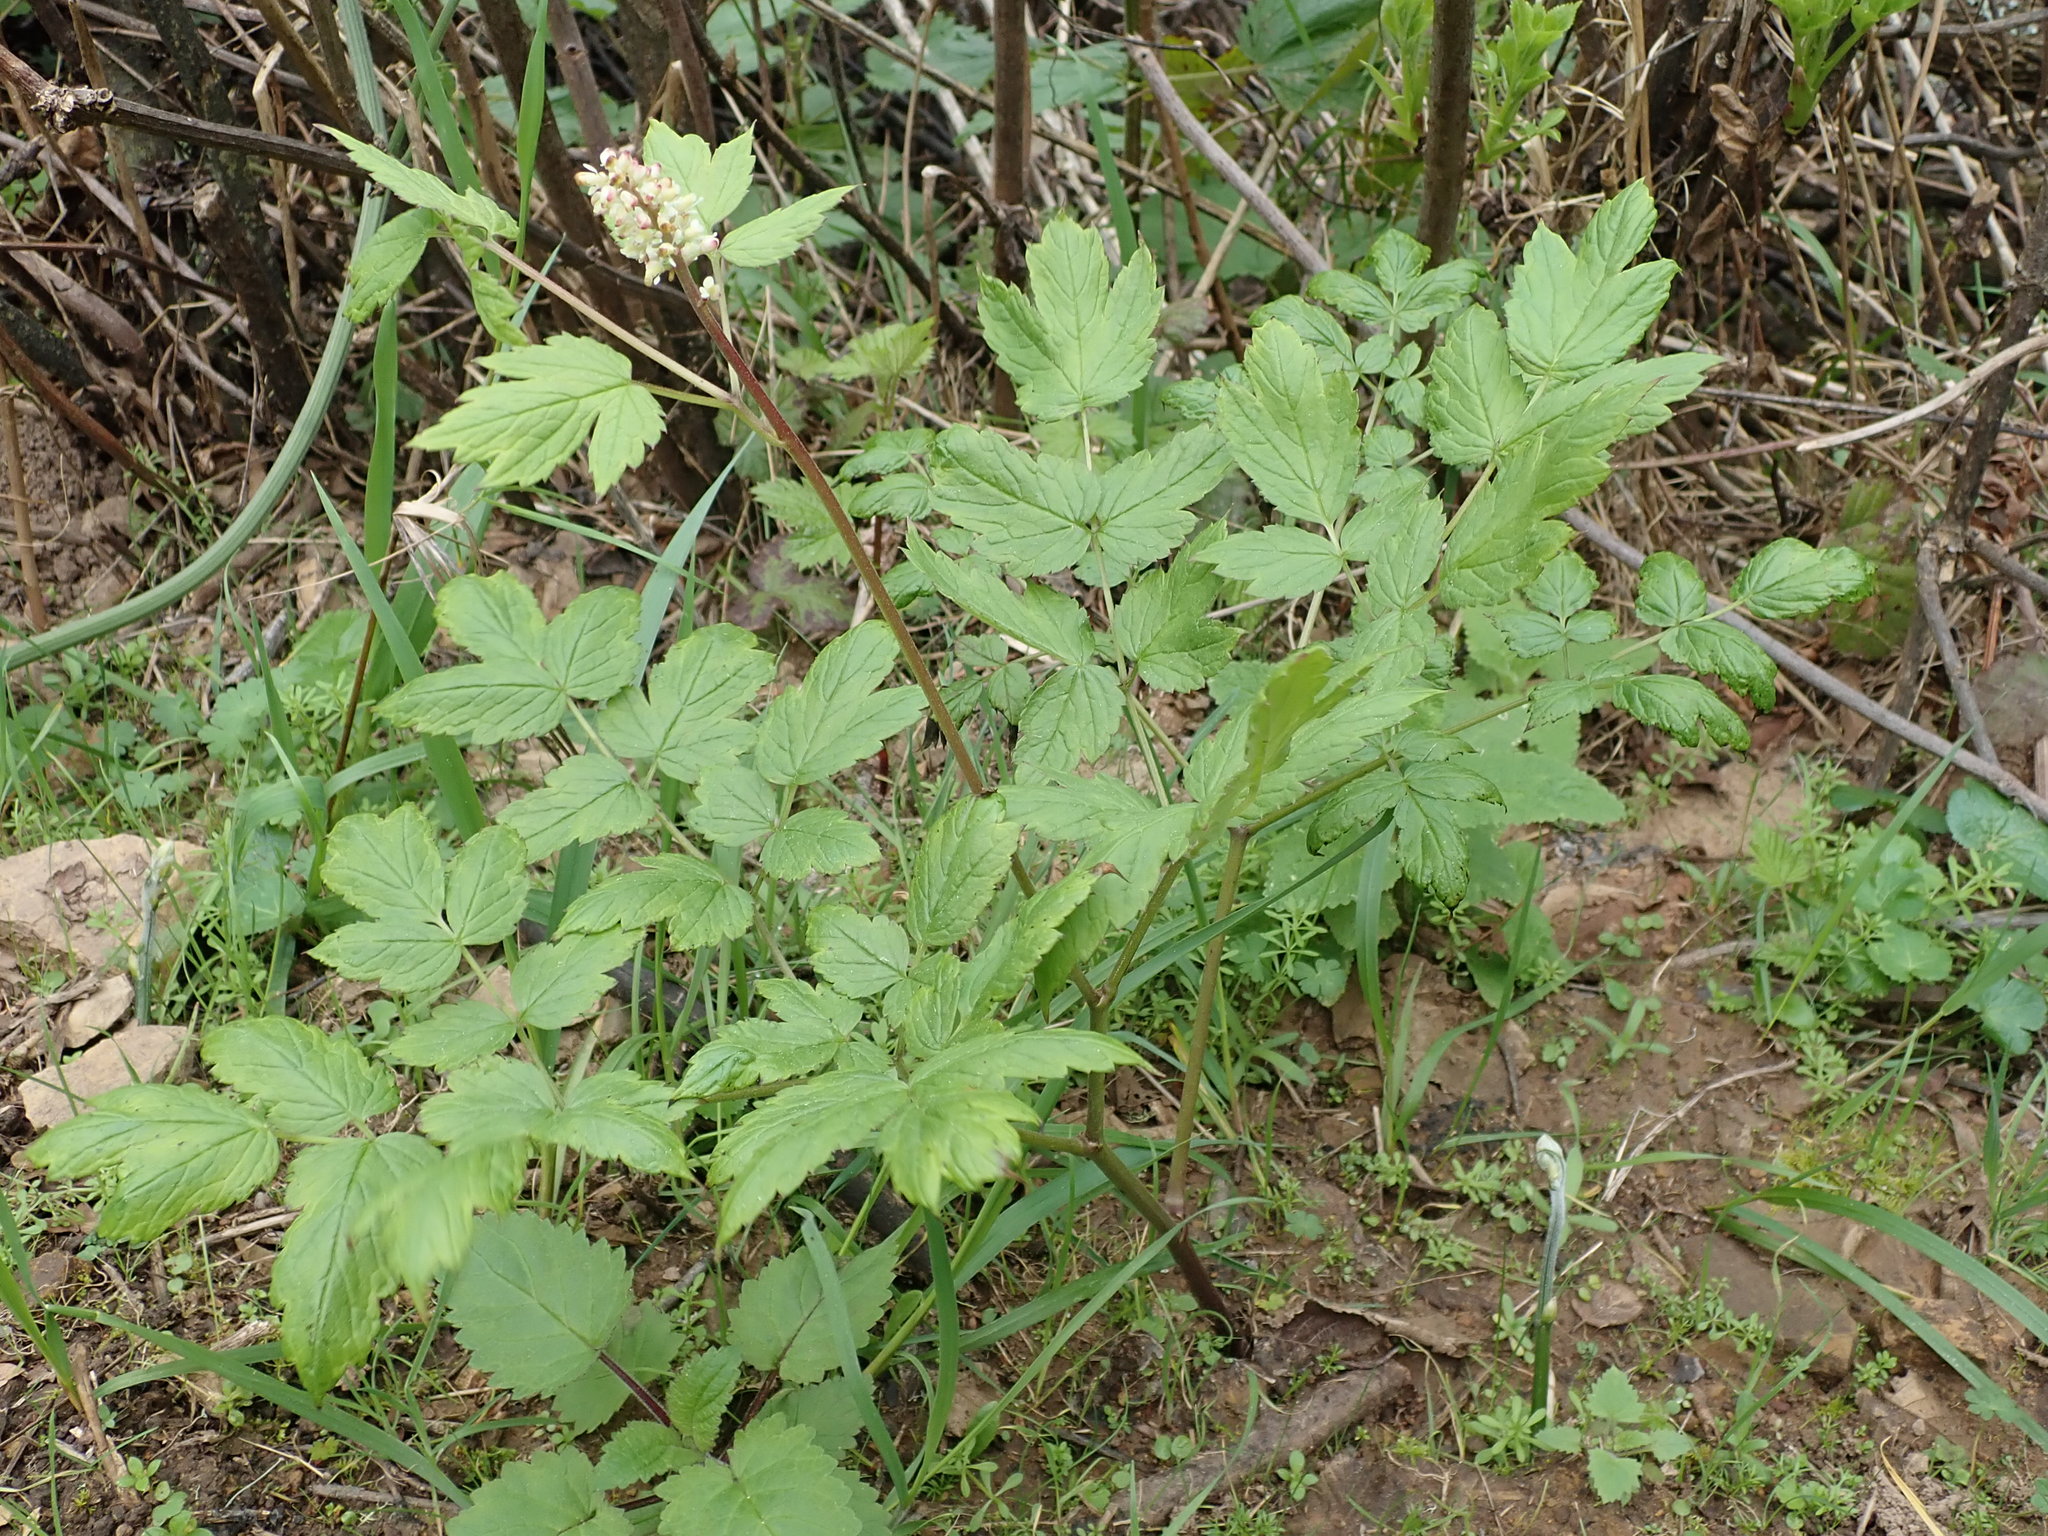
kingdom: Plantae
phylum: Tracheophyta
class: Magnoliopsida
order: Ranunculales
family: Ranunculaceae
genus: Actaea
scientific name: Actaea rubra
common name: Red baneberry
